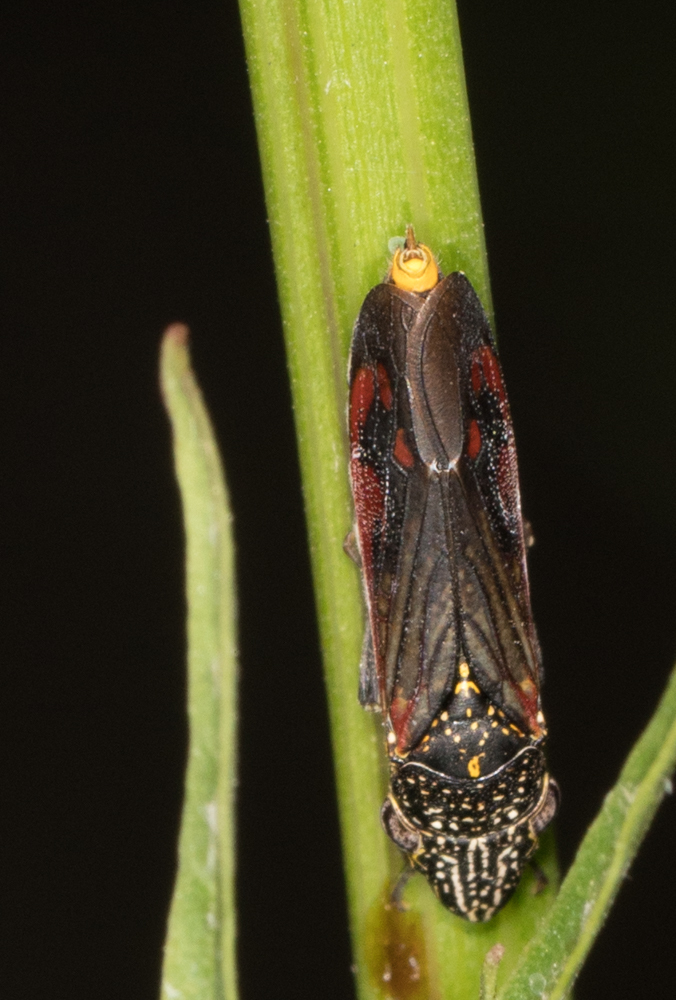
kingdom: Animalia
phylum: Arthropoda
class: Insecta
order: Hemiptera
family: Cicadellidae
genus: Homalodisca
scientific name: Homalodisca liturata
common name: Lacertate sharpshooter
